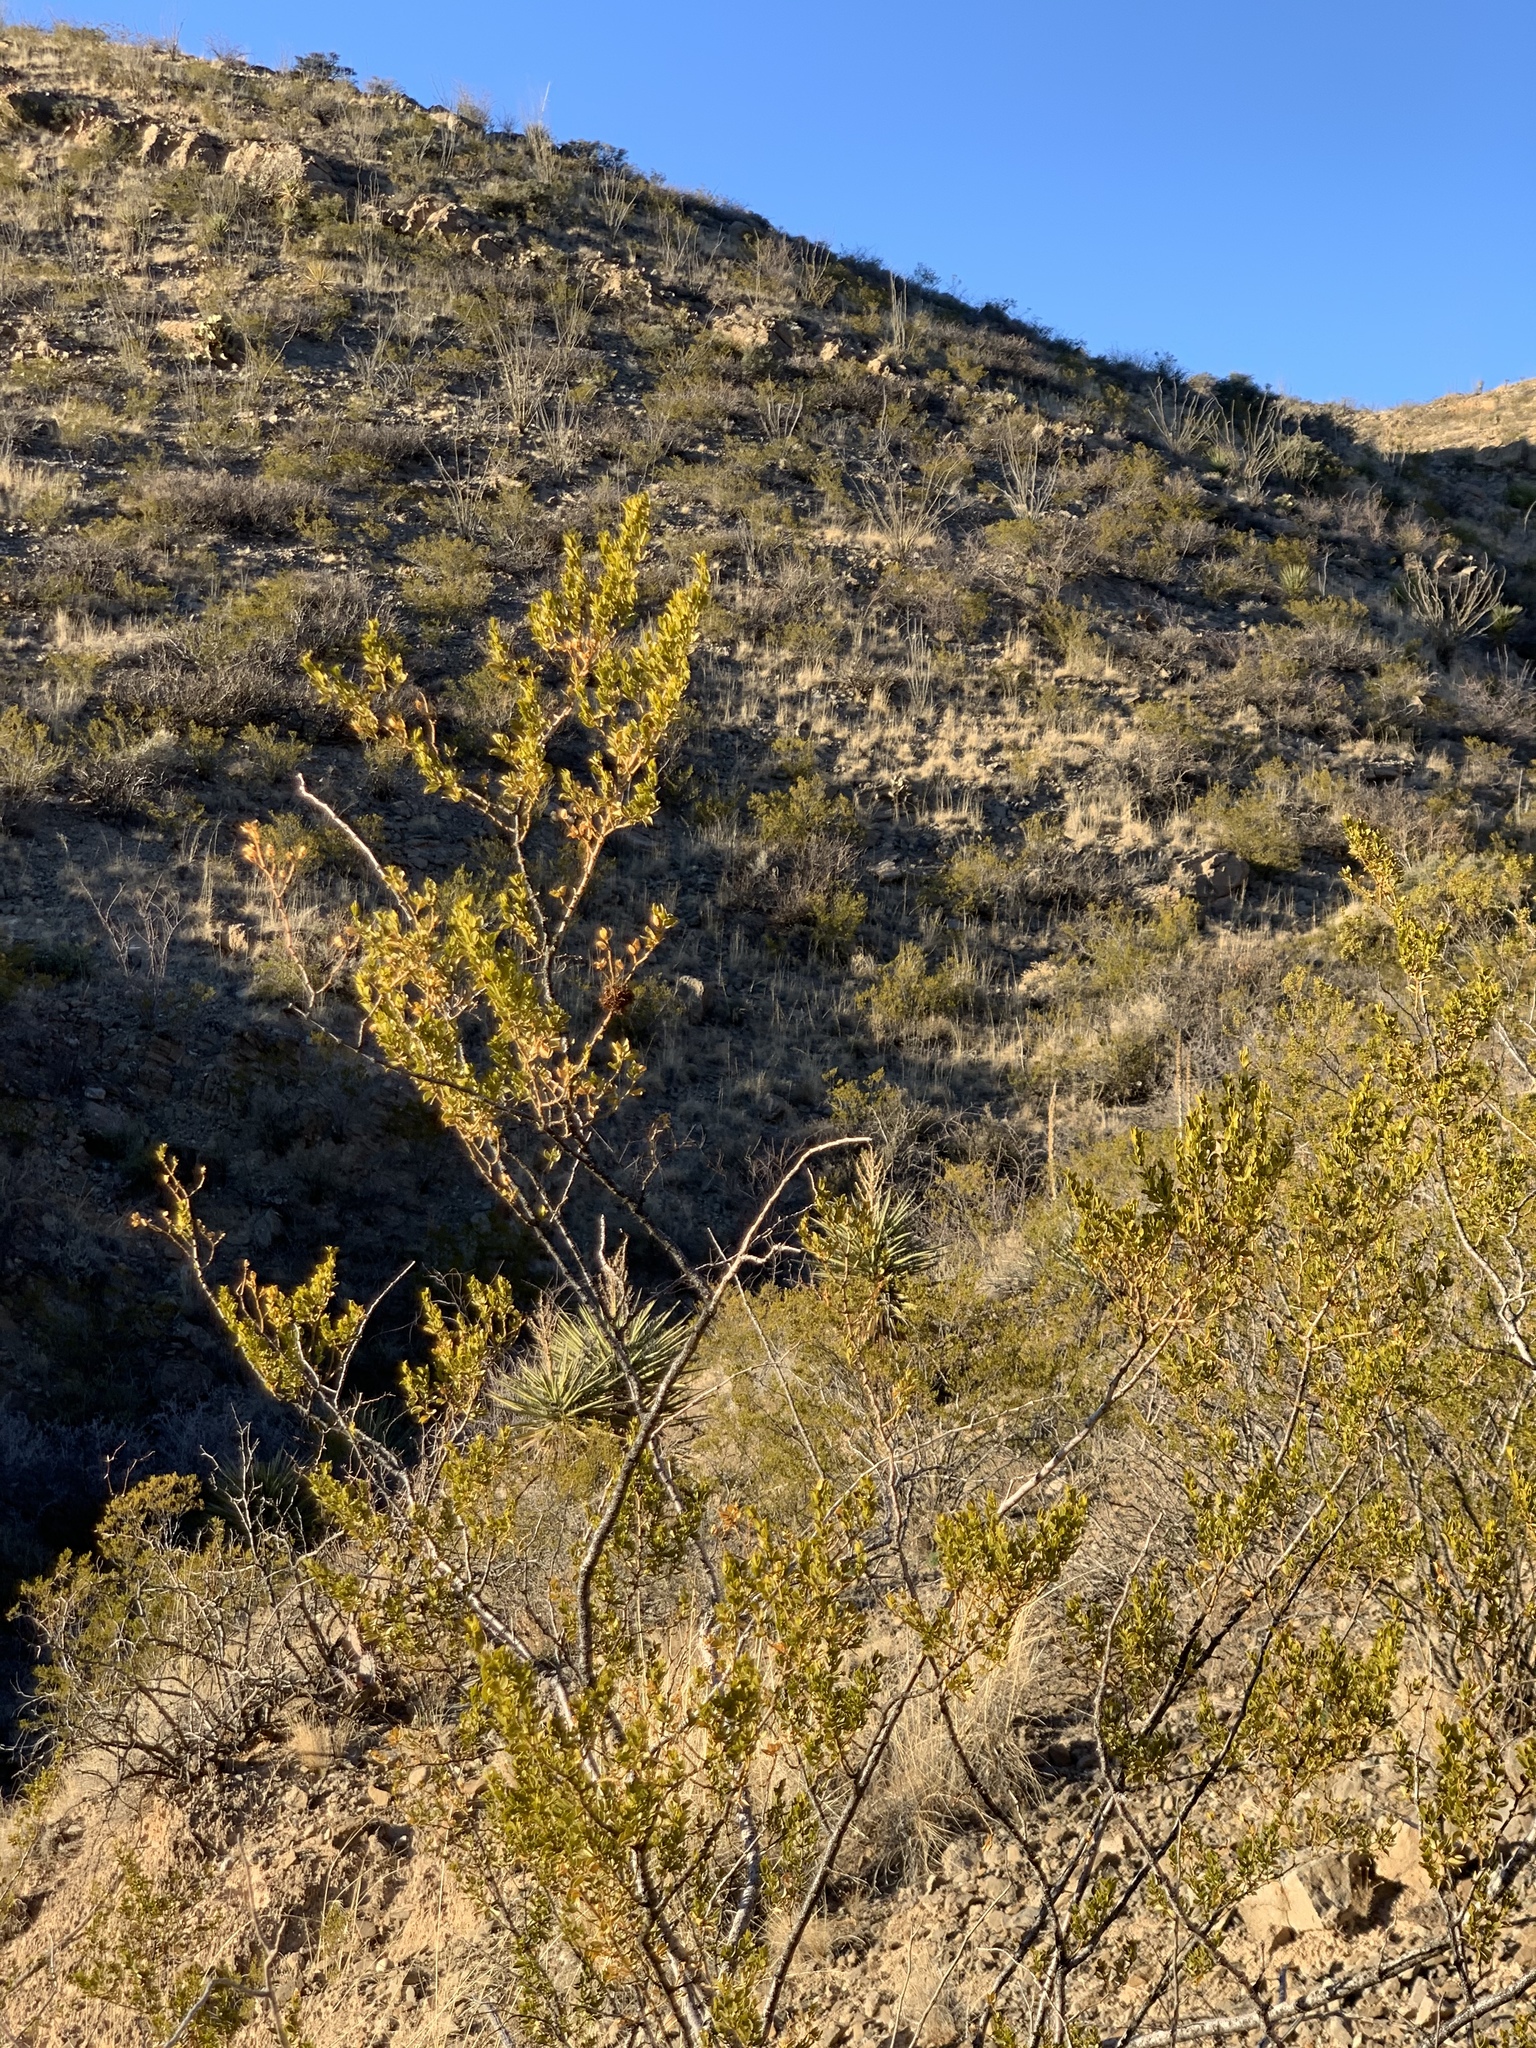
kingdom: Plantae
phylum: Tracheophyta
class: Magnoliopsida
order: Zygophyllales
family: Zygophyllaceae
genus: Larrea
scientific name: Larrea tridentata
